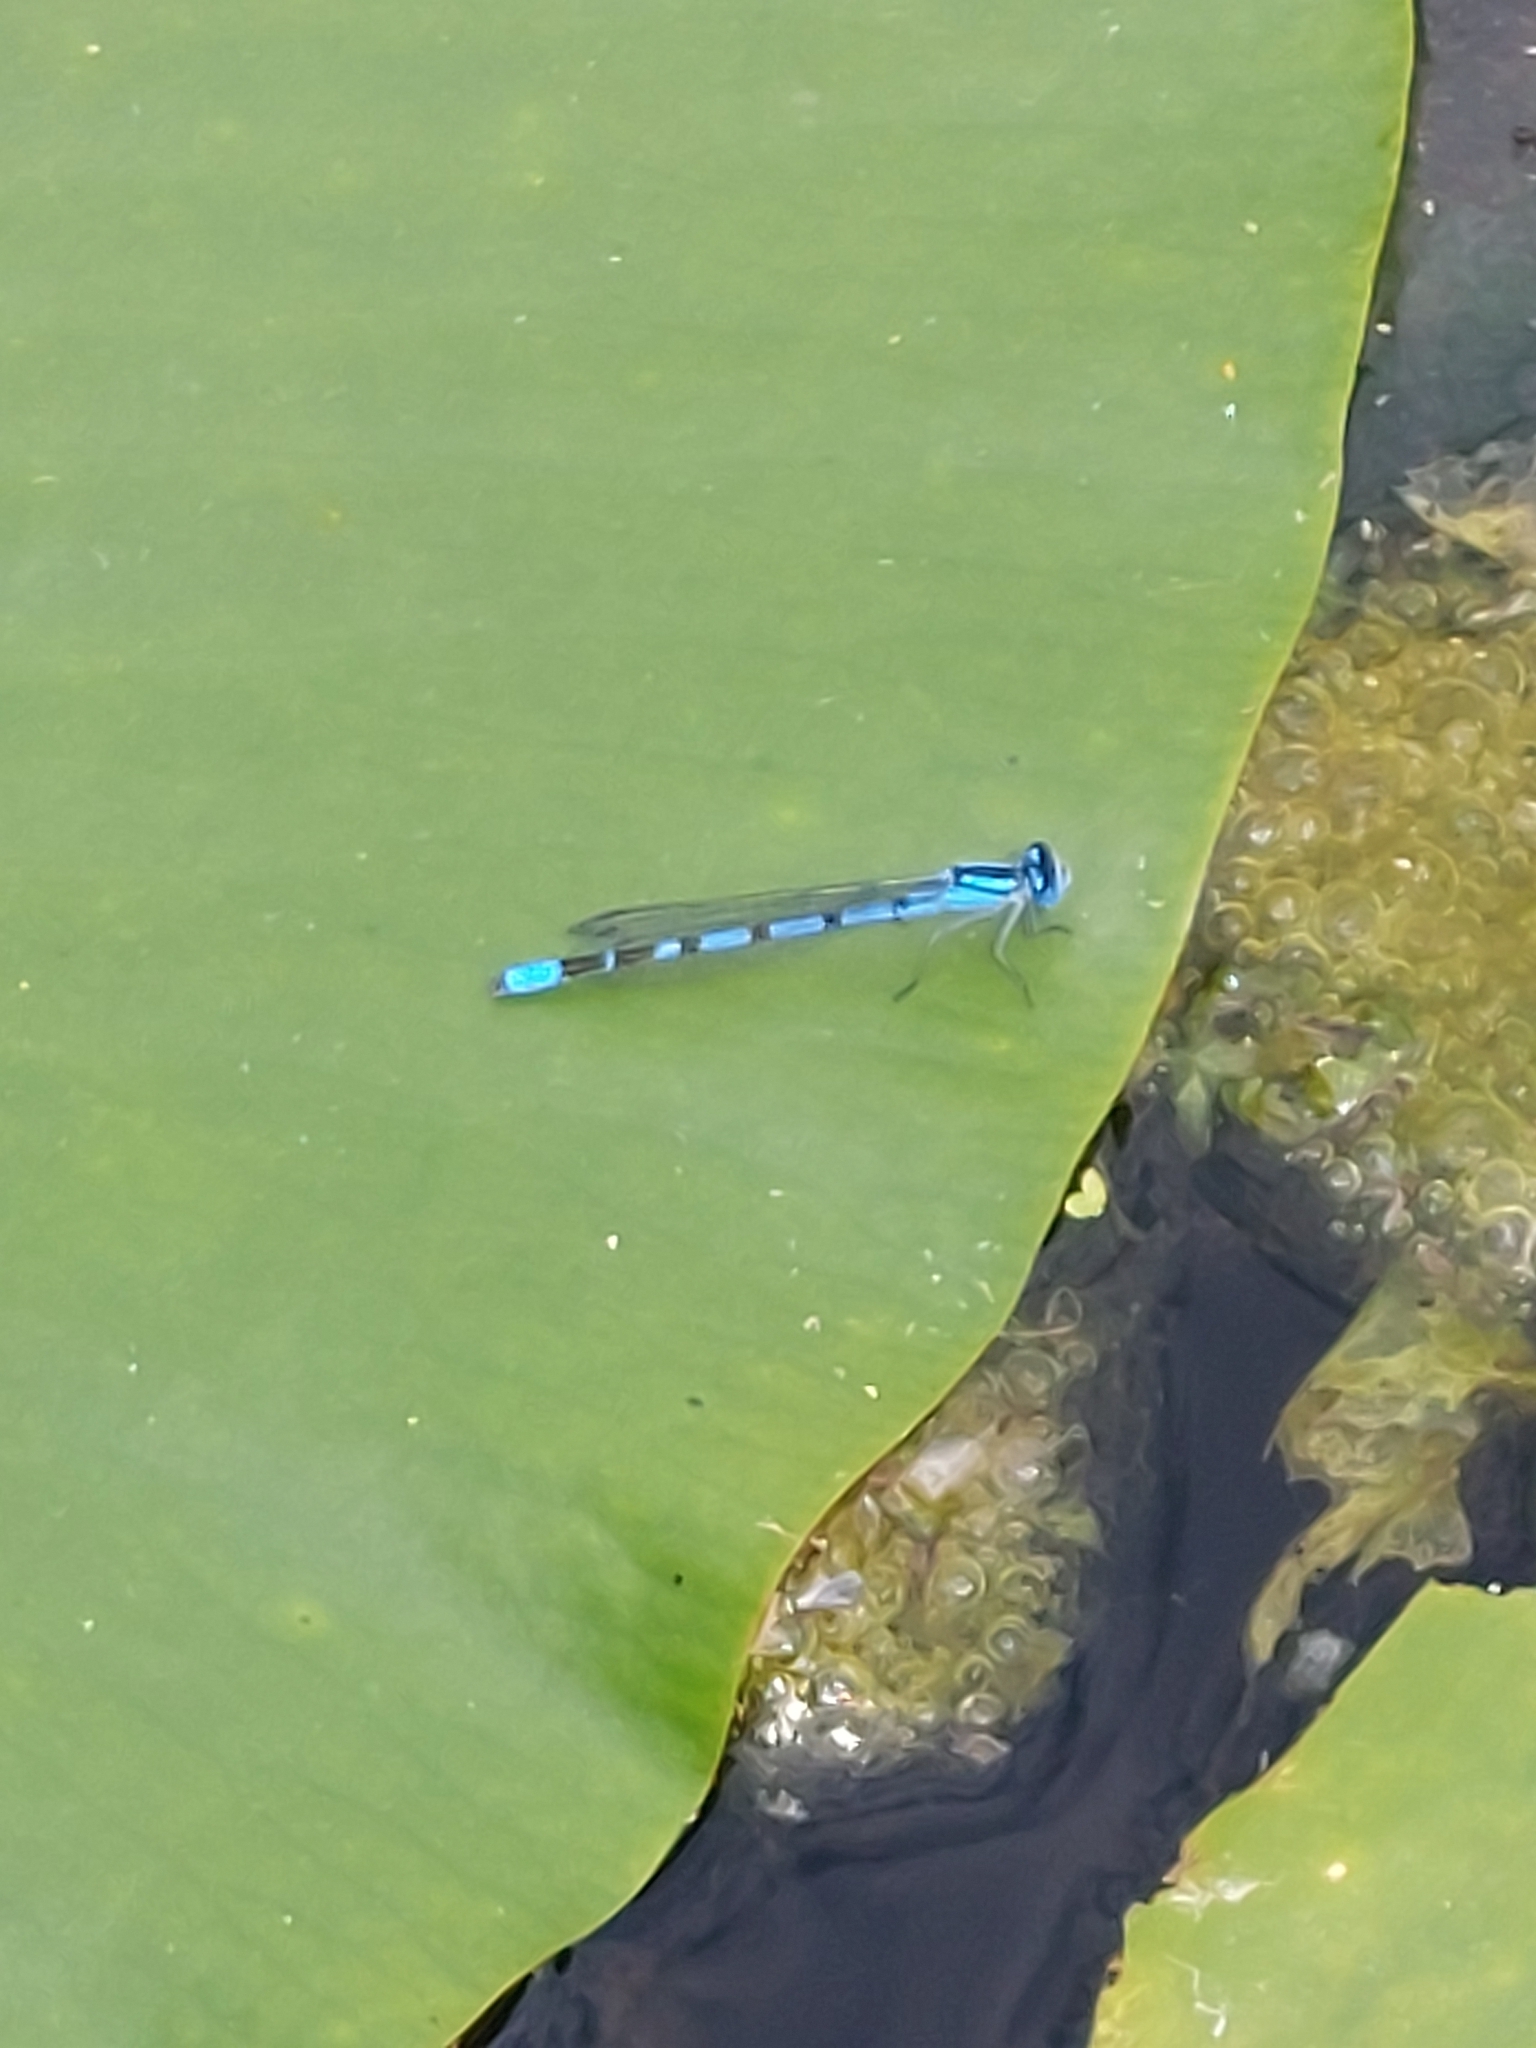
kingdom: Animalia
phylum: Arthropoda
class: Insecta
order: Odonata
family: Coenagrionidae
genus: Enallagma
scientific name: Enallagma cyathigerum
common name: Common blue damselfly
